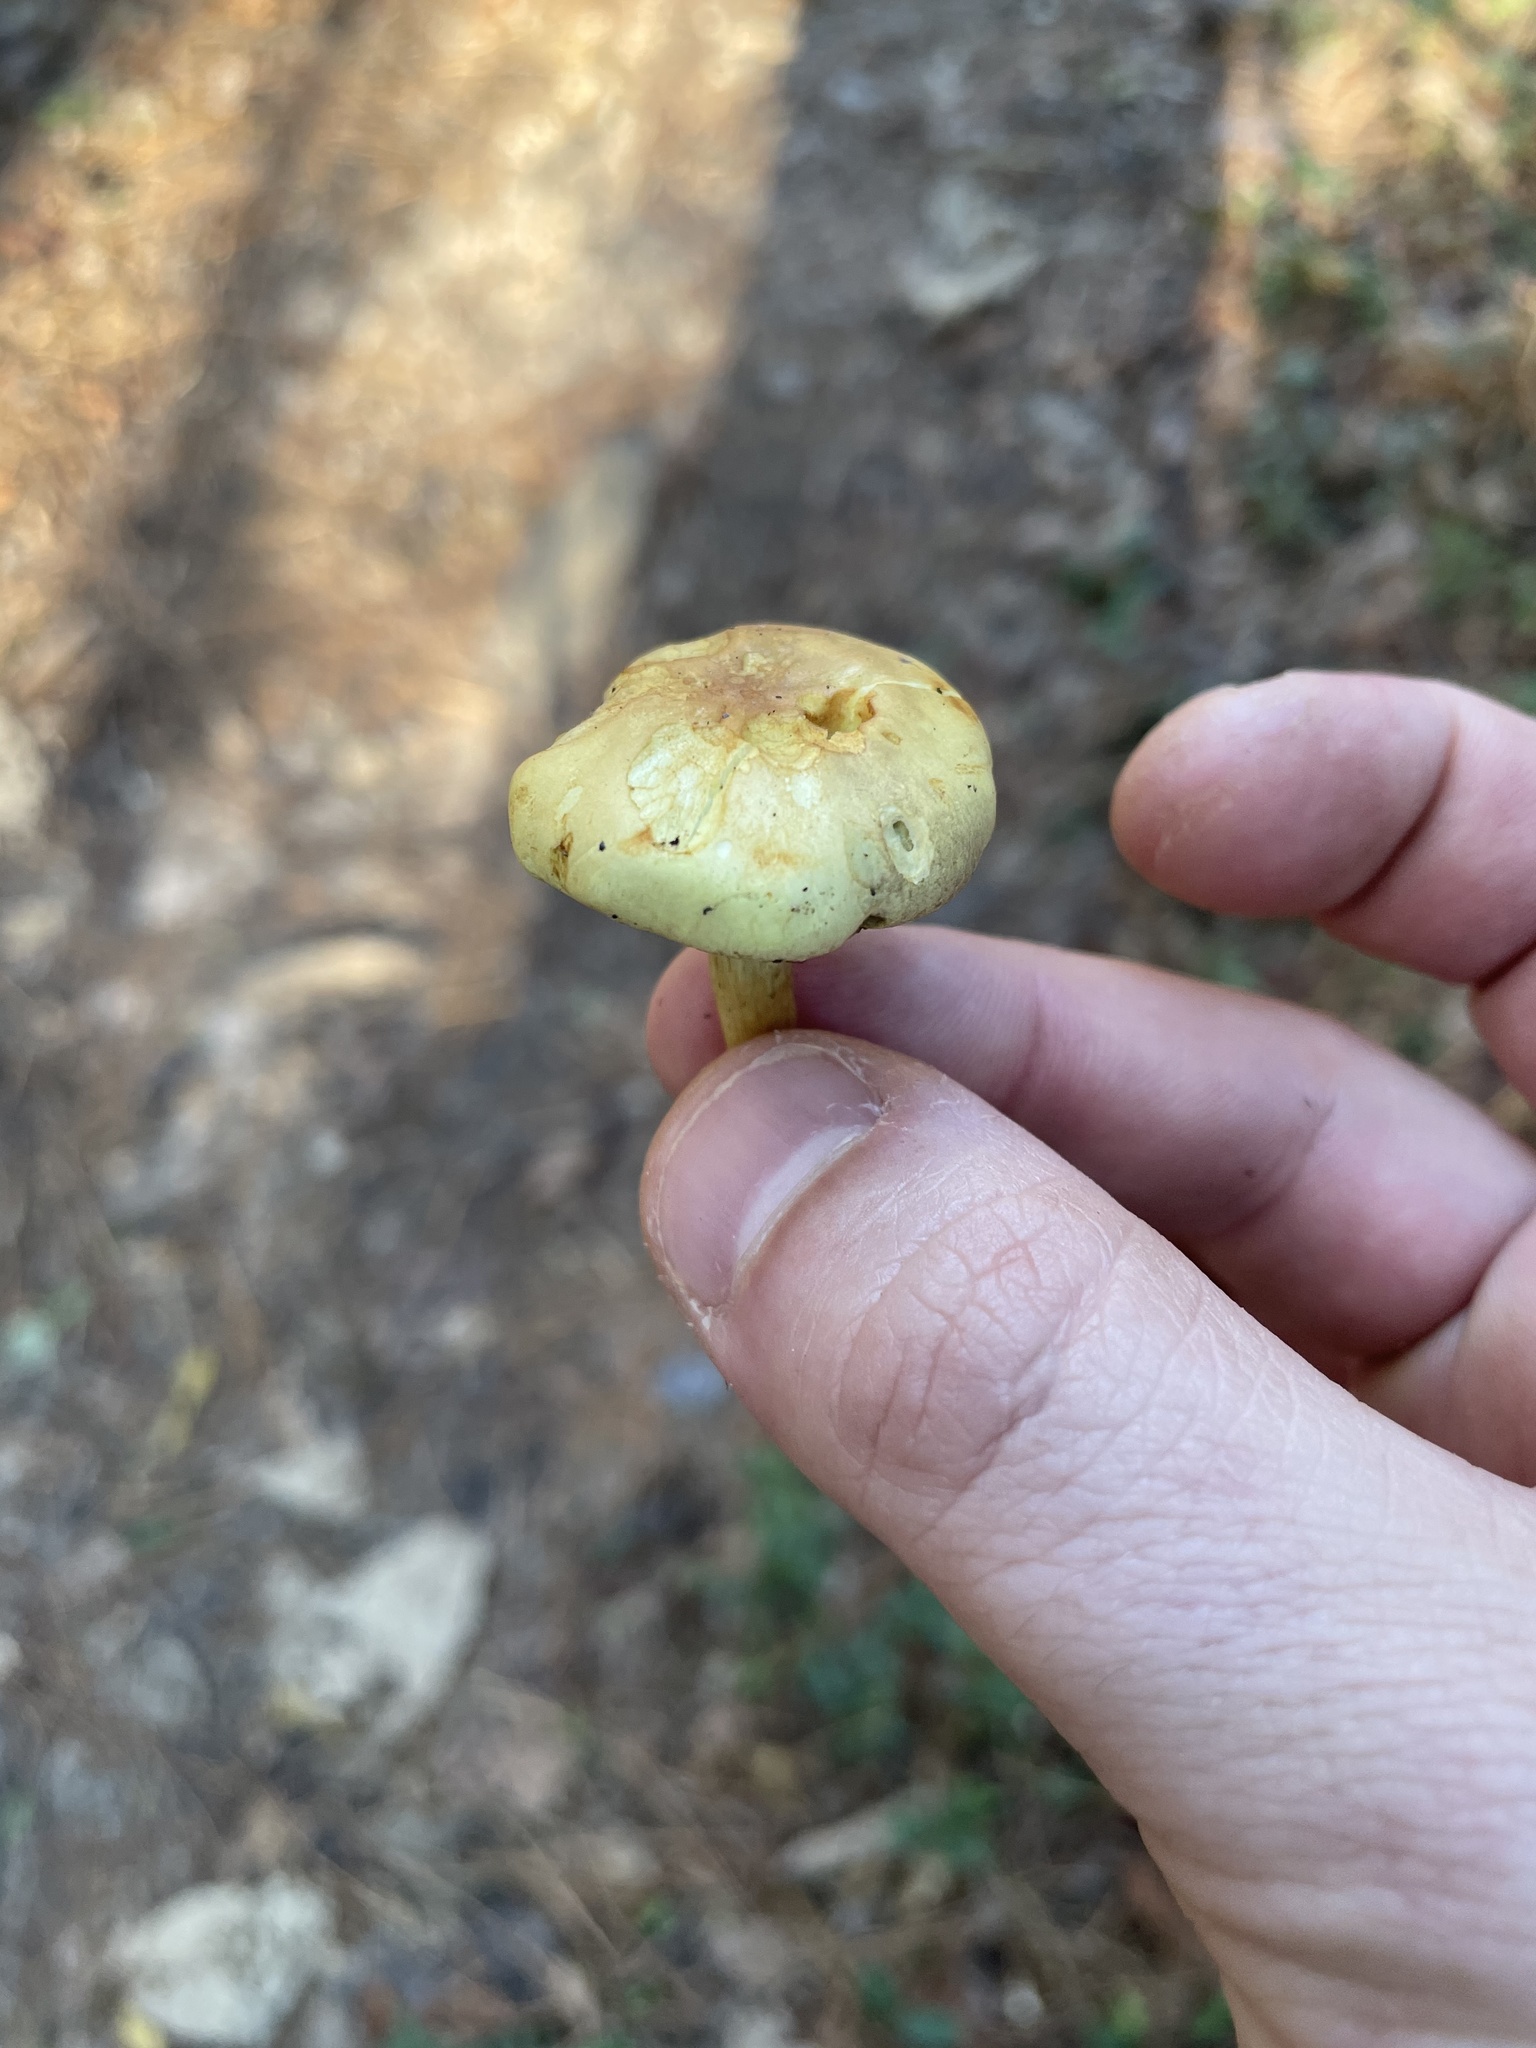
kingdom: Fungi
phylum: Basidiomycota
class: Agaricomycetes
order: Agaricales
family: Strophariaceae
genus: Hypholoma
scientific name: Hypholoma fasciculare
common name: Sulphur tuft
